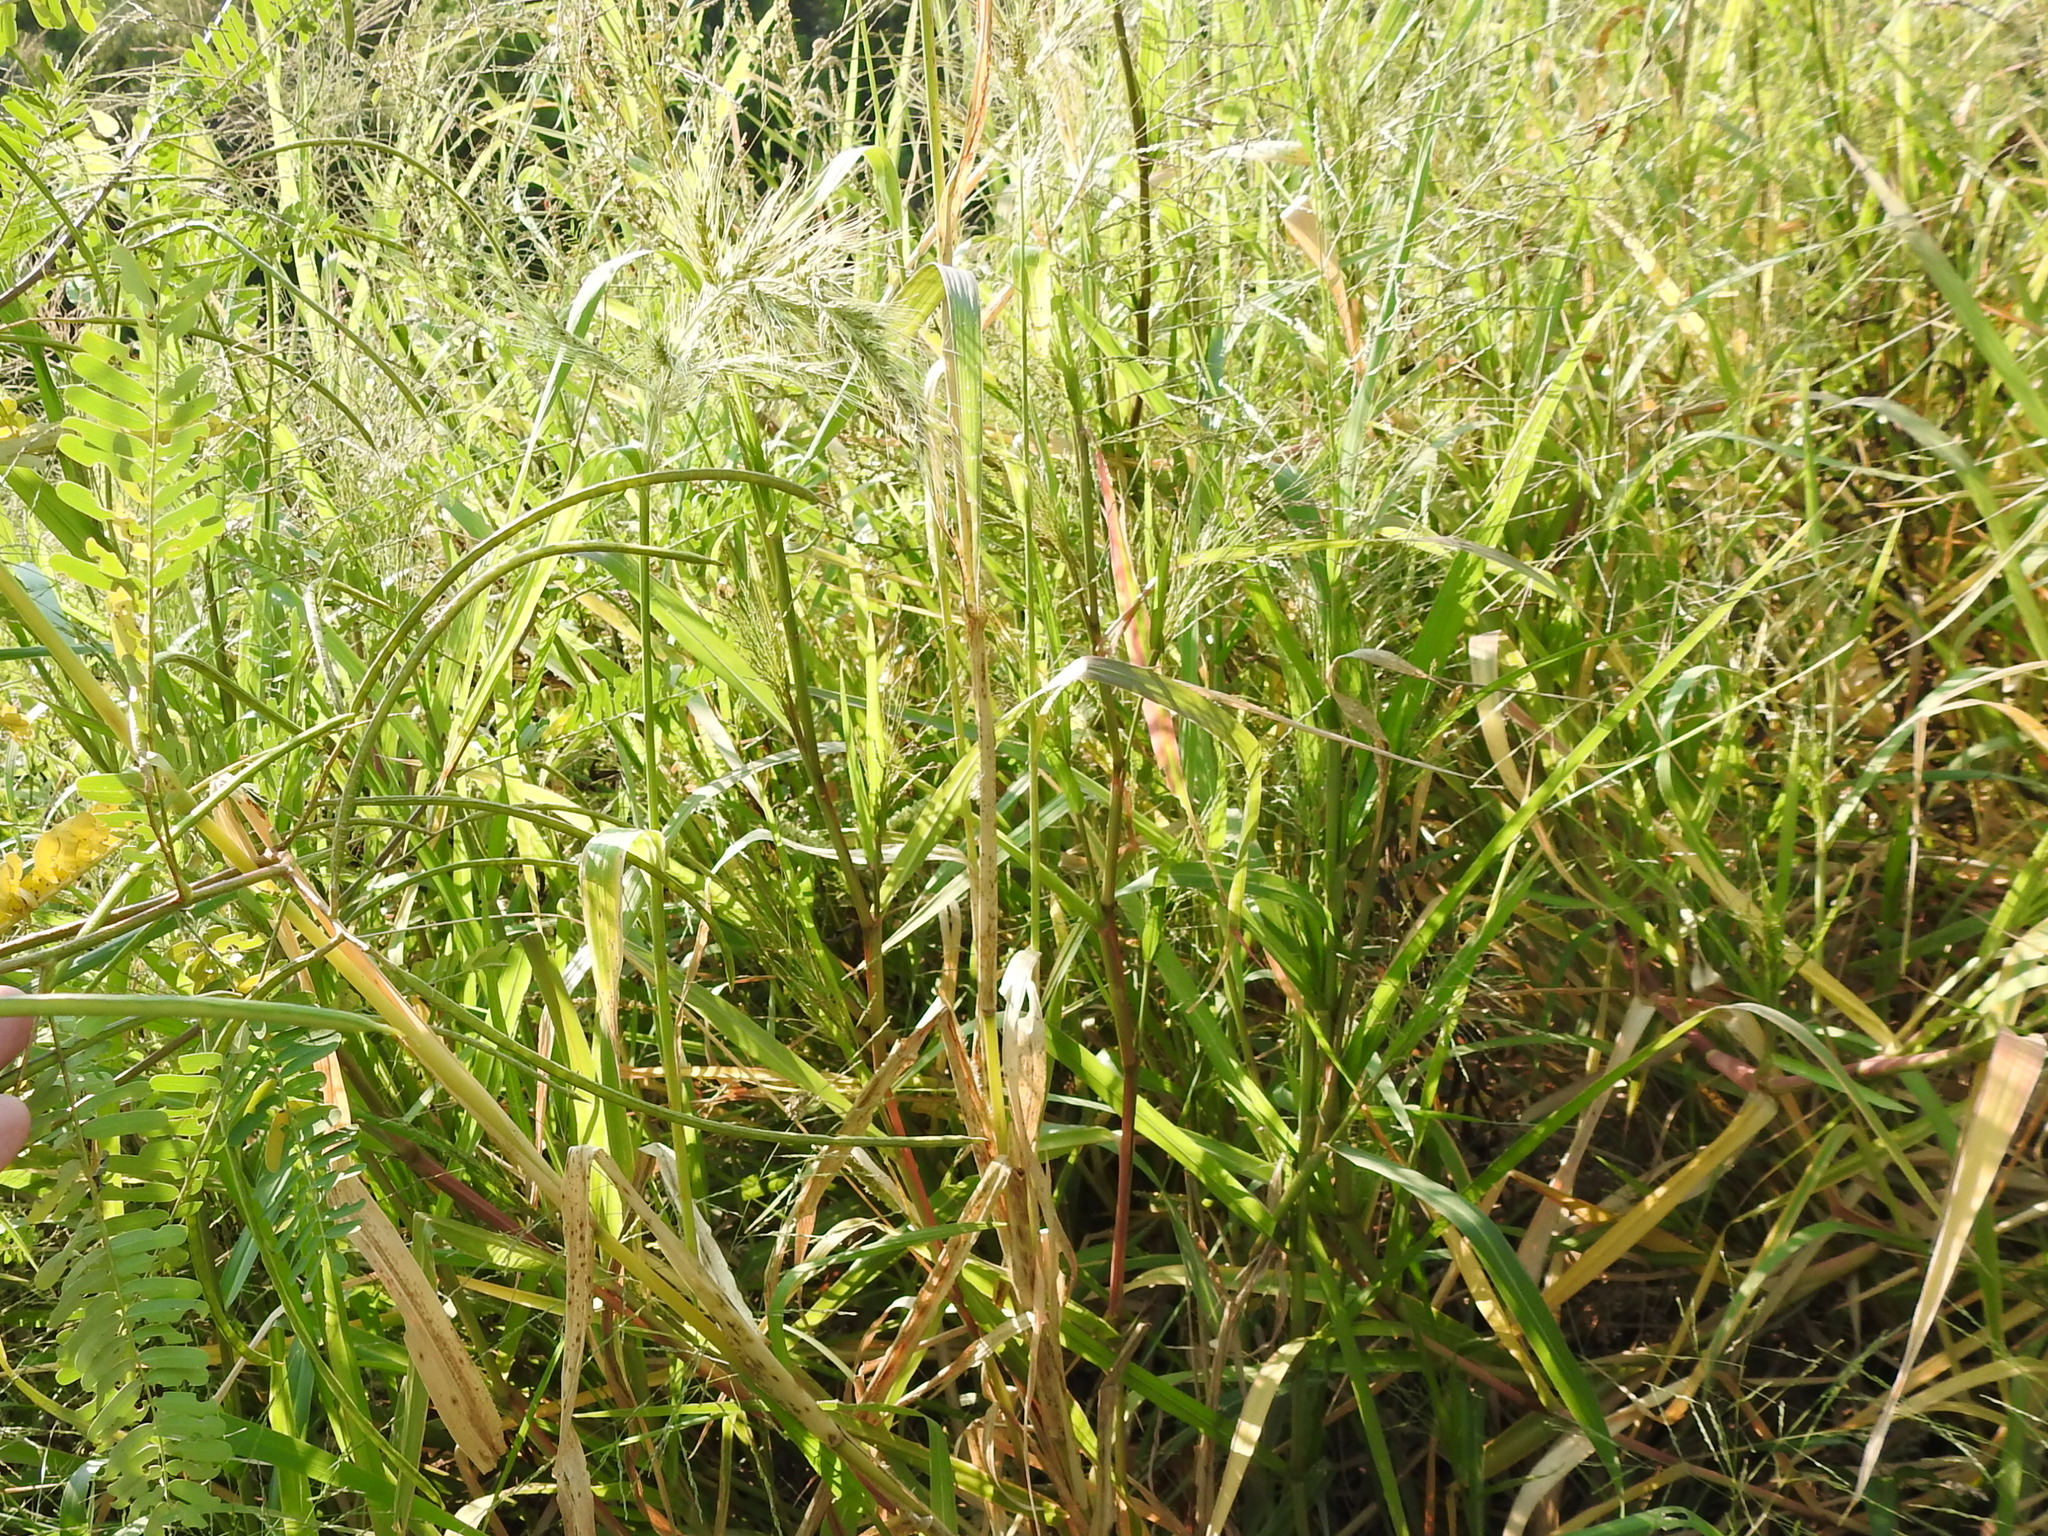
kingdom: Plantae
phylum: Tracheophyta
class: Liliopsida
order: Poales
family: Poaceae
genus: Echinochloa
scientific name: Echinochloa walteri
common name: Coast barnyard grass
